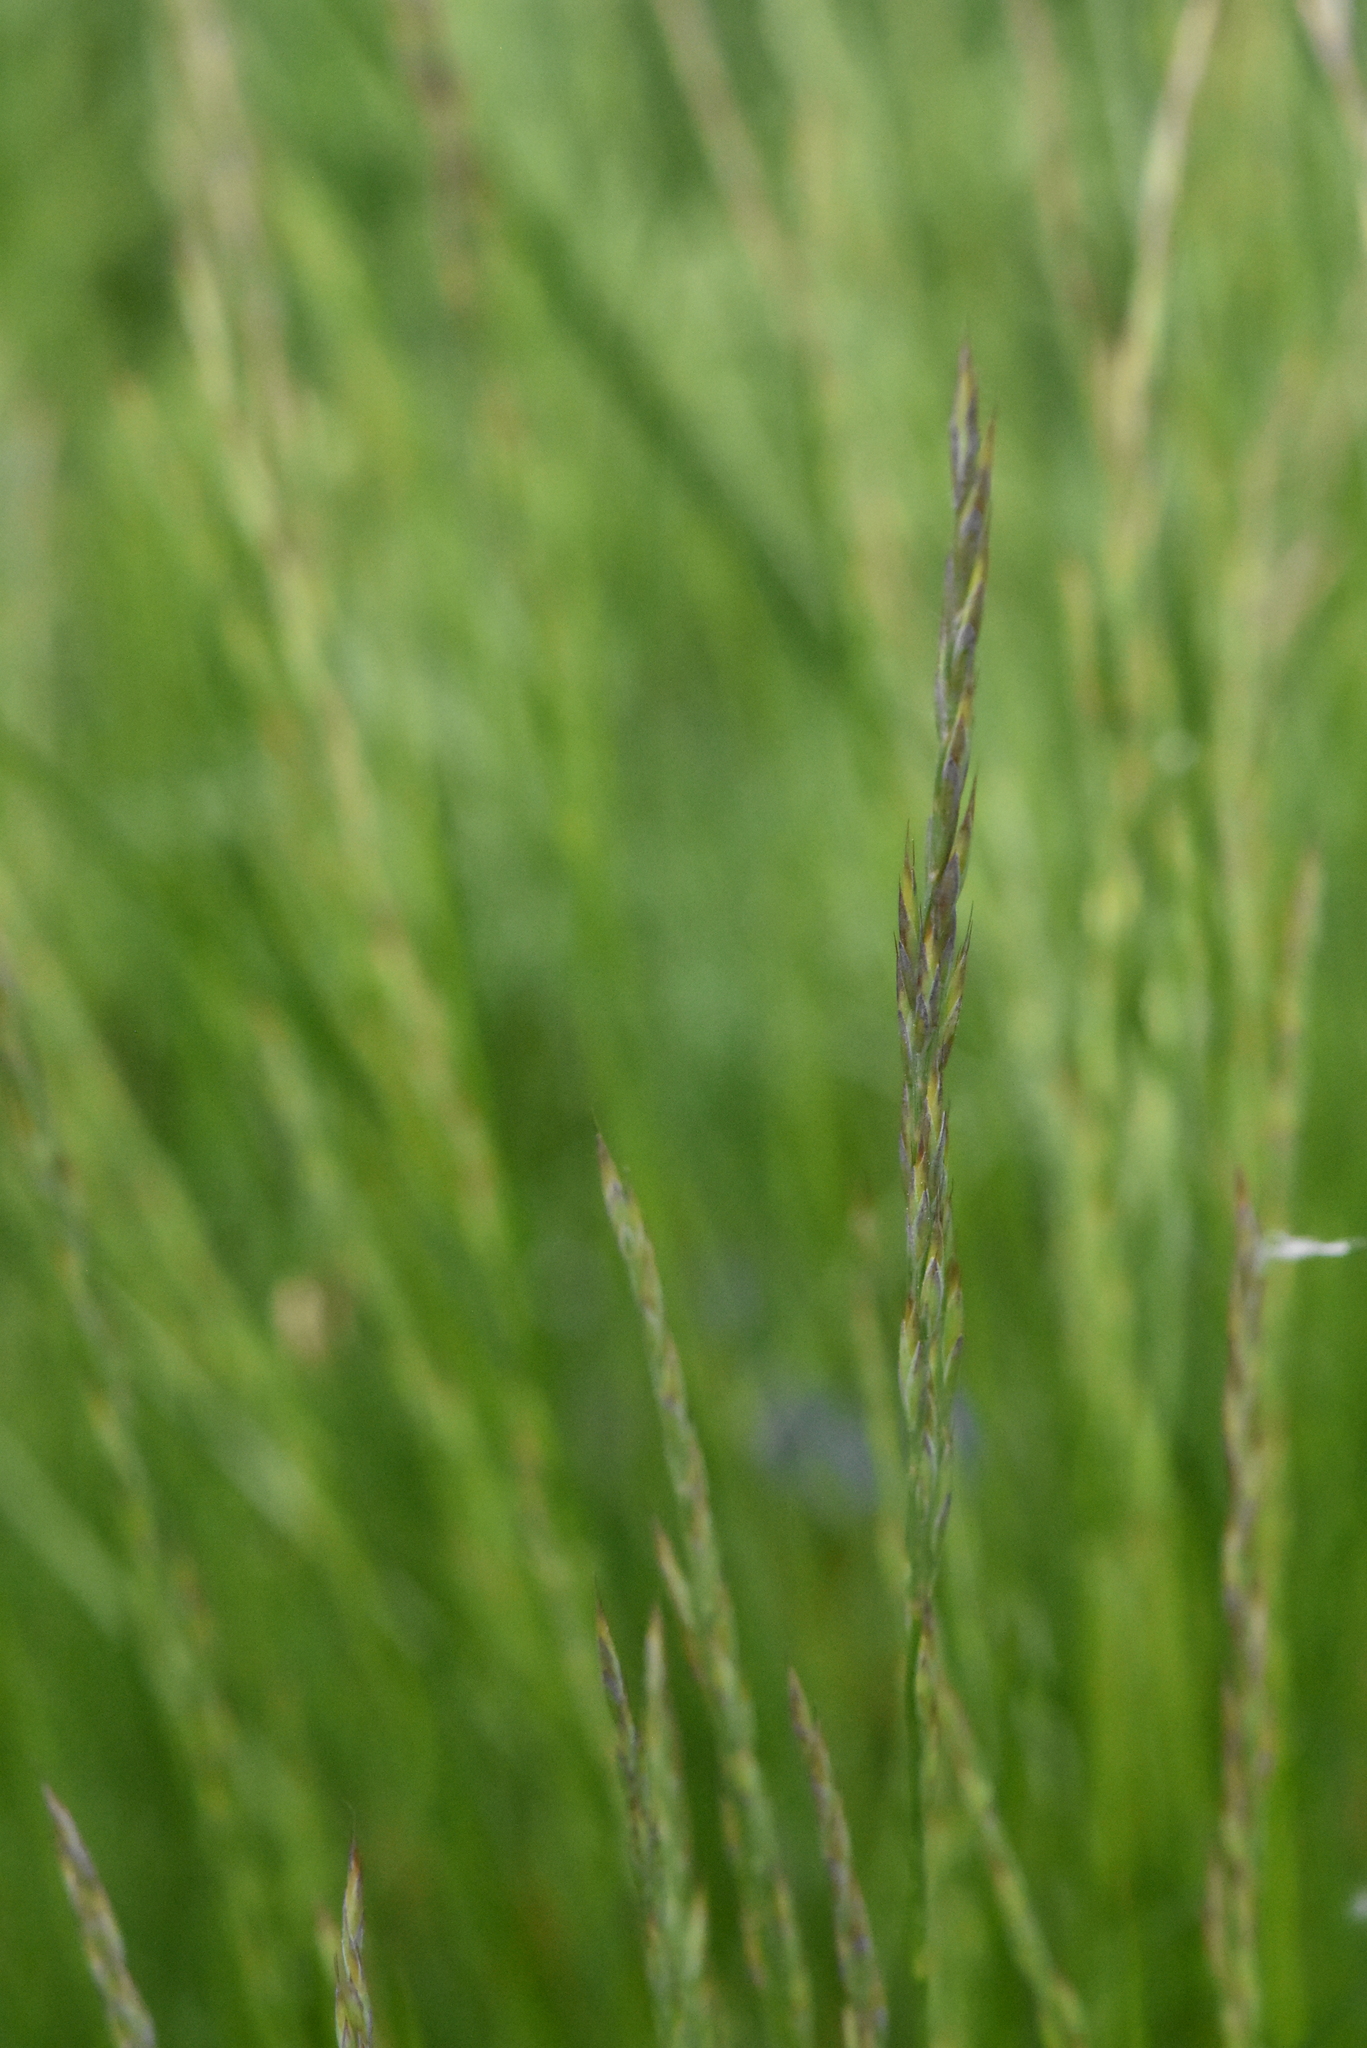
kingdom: Plantae
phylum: Tracheophyta
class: Liliopsida
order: Poales
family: Poaceae
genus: Festuca
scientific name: Festuca rubra
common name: Red fescue
